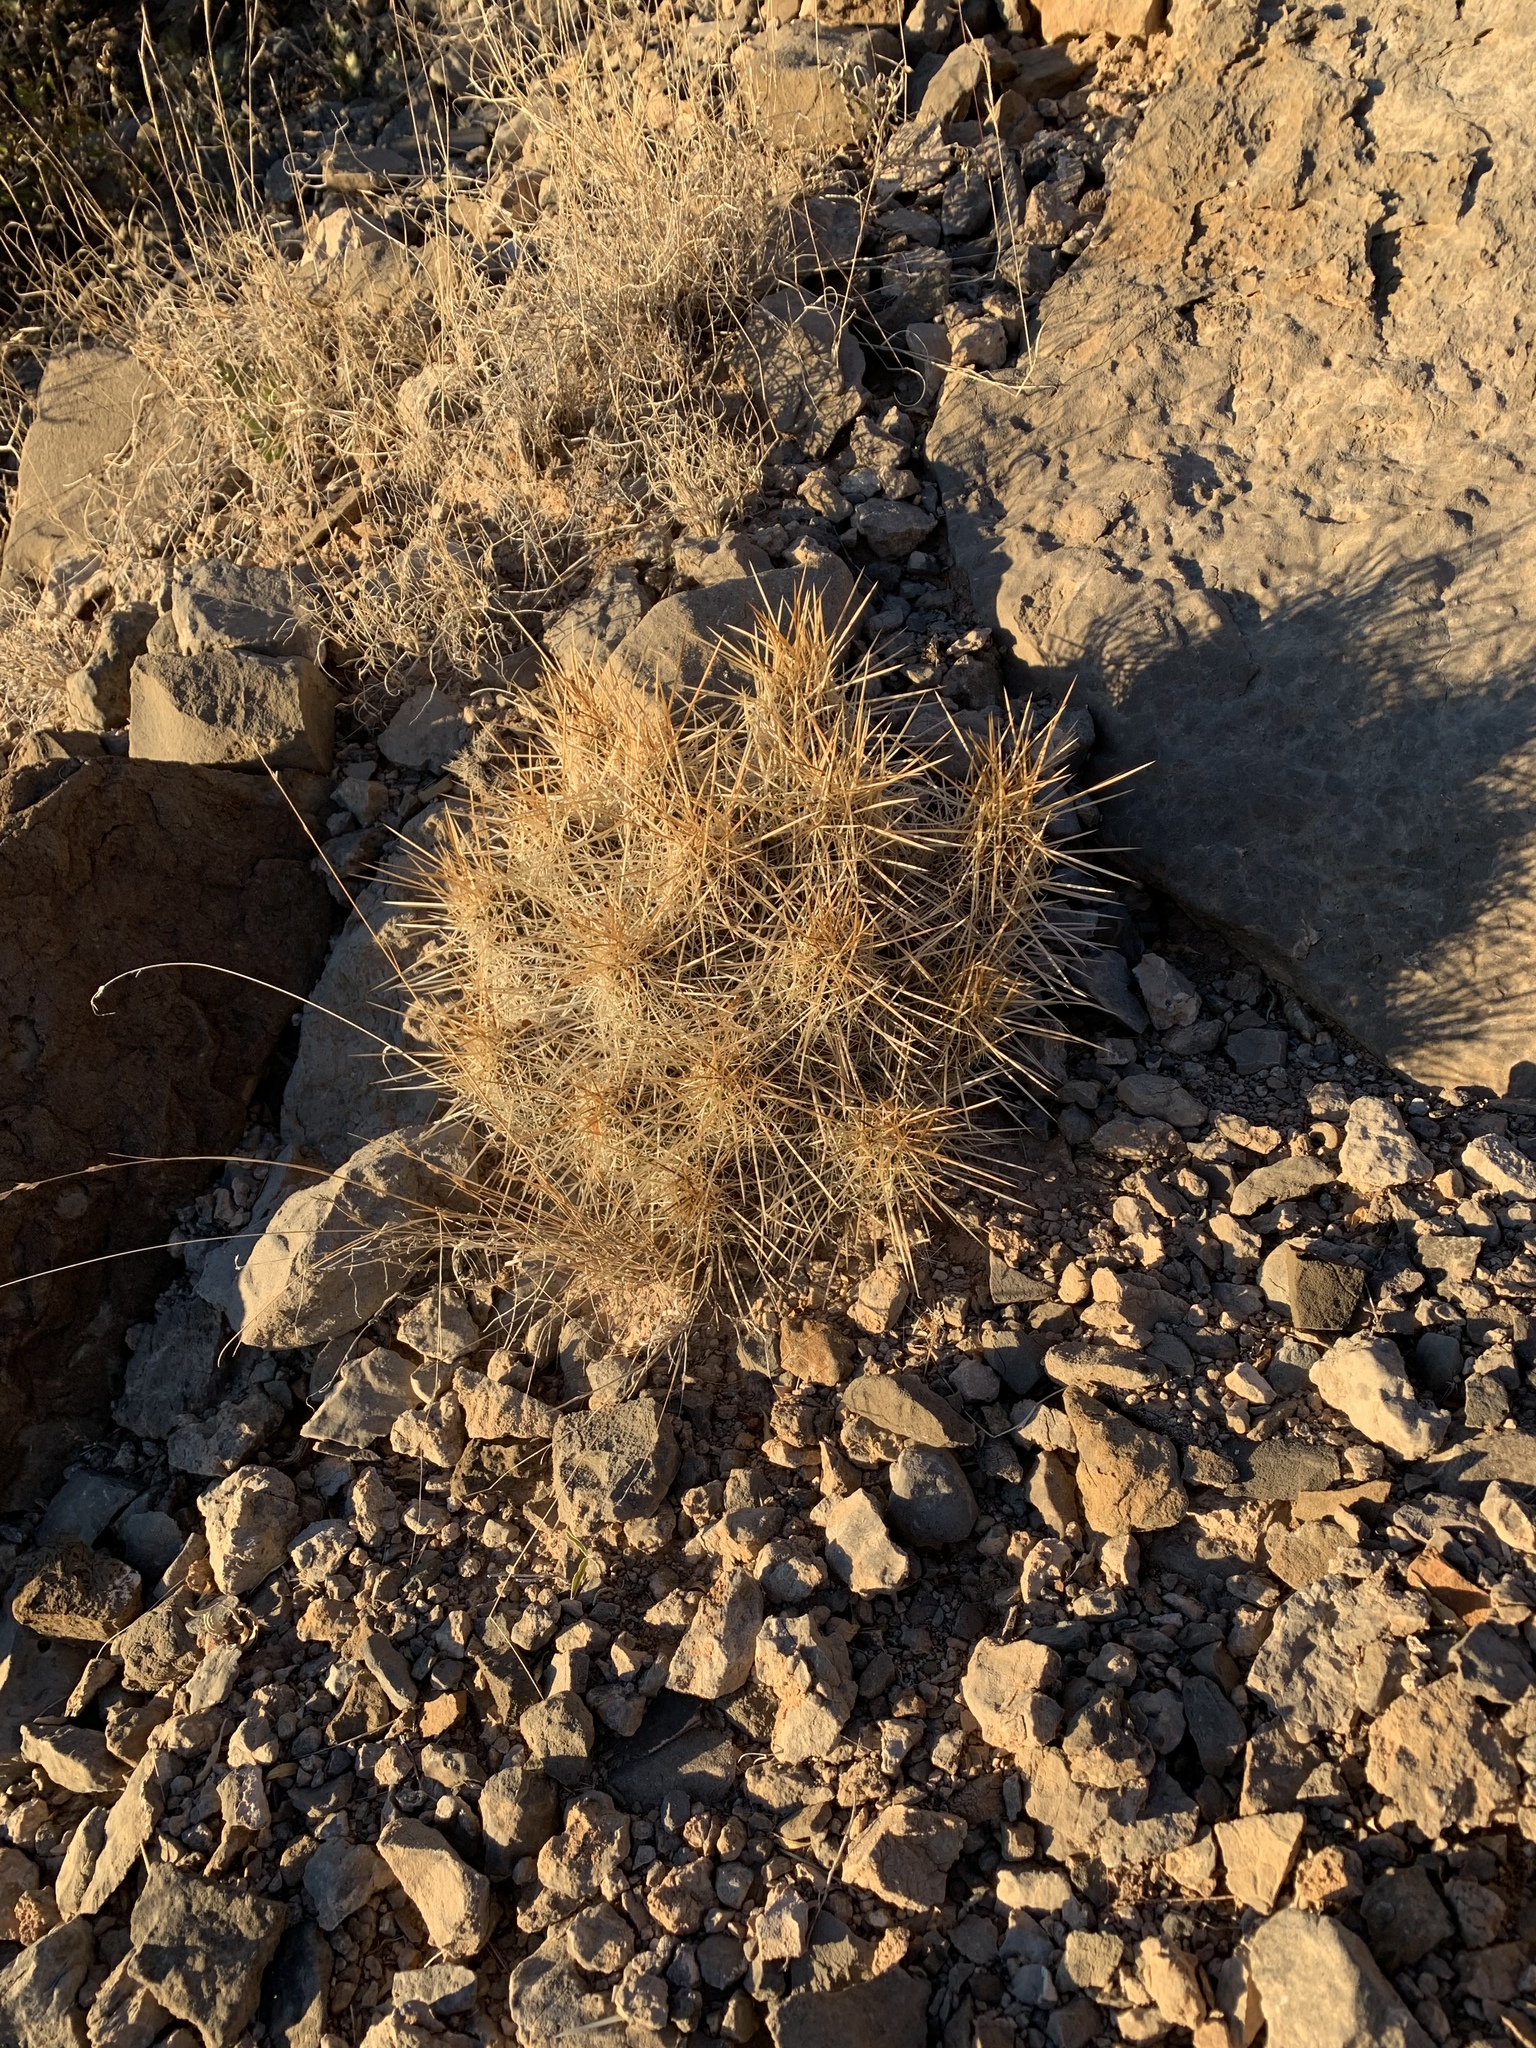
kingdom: Plantae
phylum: Tracheophyta
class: Magnoliopsida
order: Caryophyllales
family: Cactaceae
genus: Echinocereus
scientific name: Echinocereus stramineus
